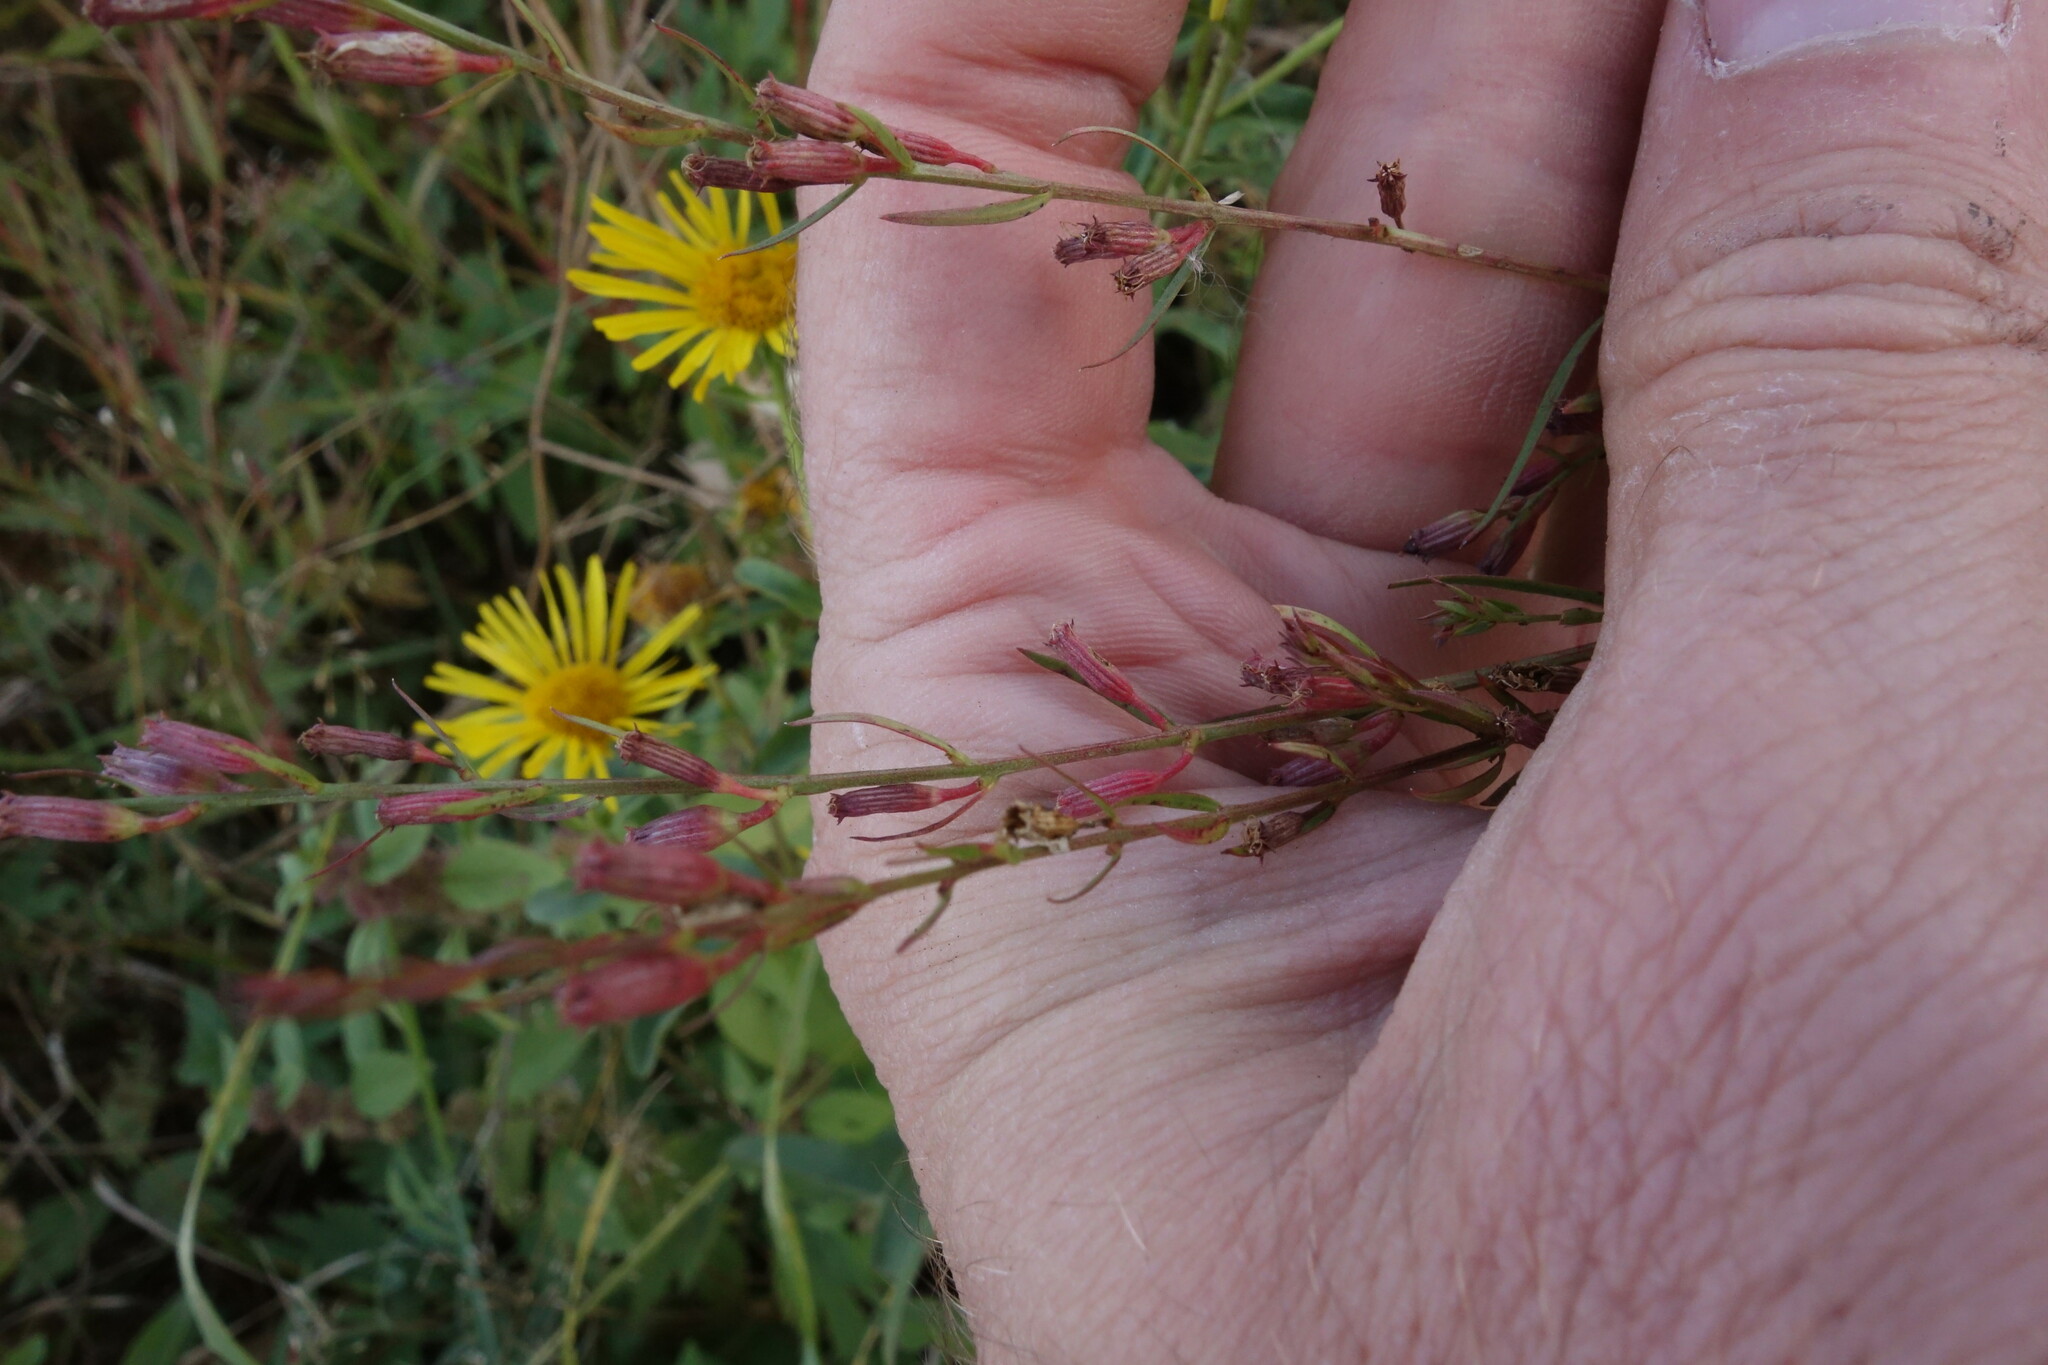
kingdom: Plantae
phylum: Tracheophyta
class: Magnoliopsida
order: Myrtales
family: Lythraceae
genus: Lythrum
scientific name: Lythrum virgatum
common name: European wand loosestrife
